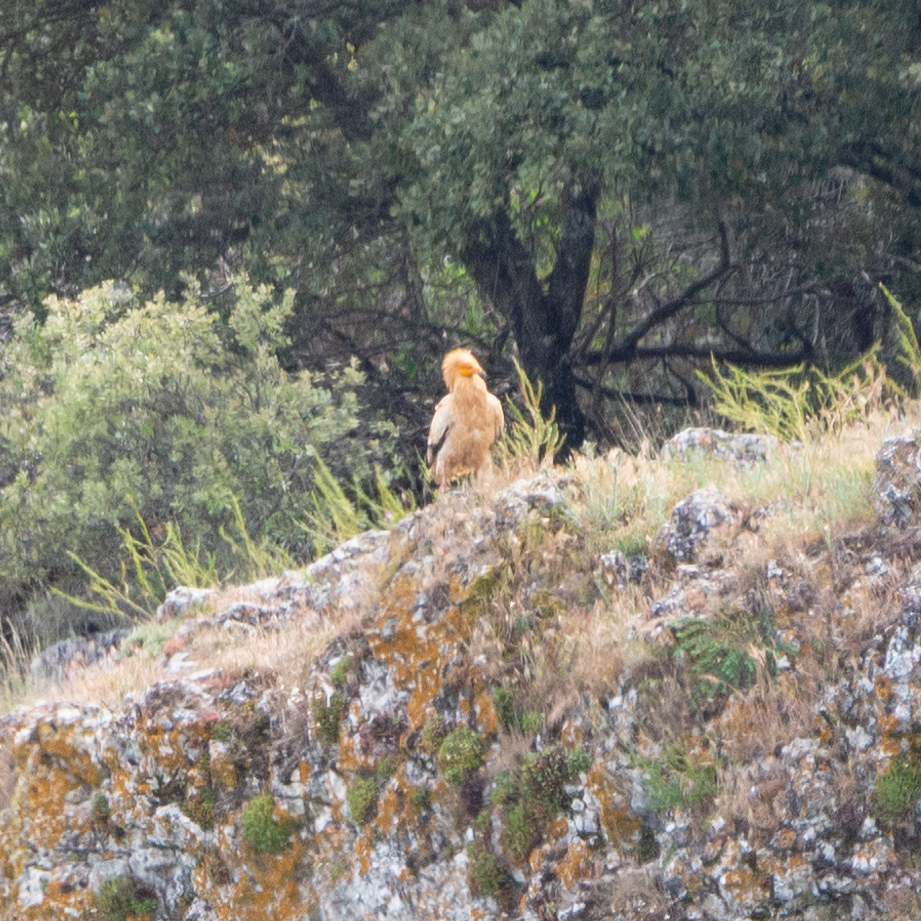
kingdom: Animalia
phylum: Chordata
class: Aves
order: Accipitriformes
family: Accipitridae
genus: Neophron
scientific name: Neophron percnopterus
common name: Egyptian vulture
